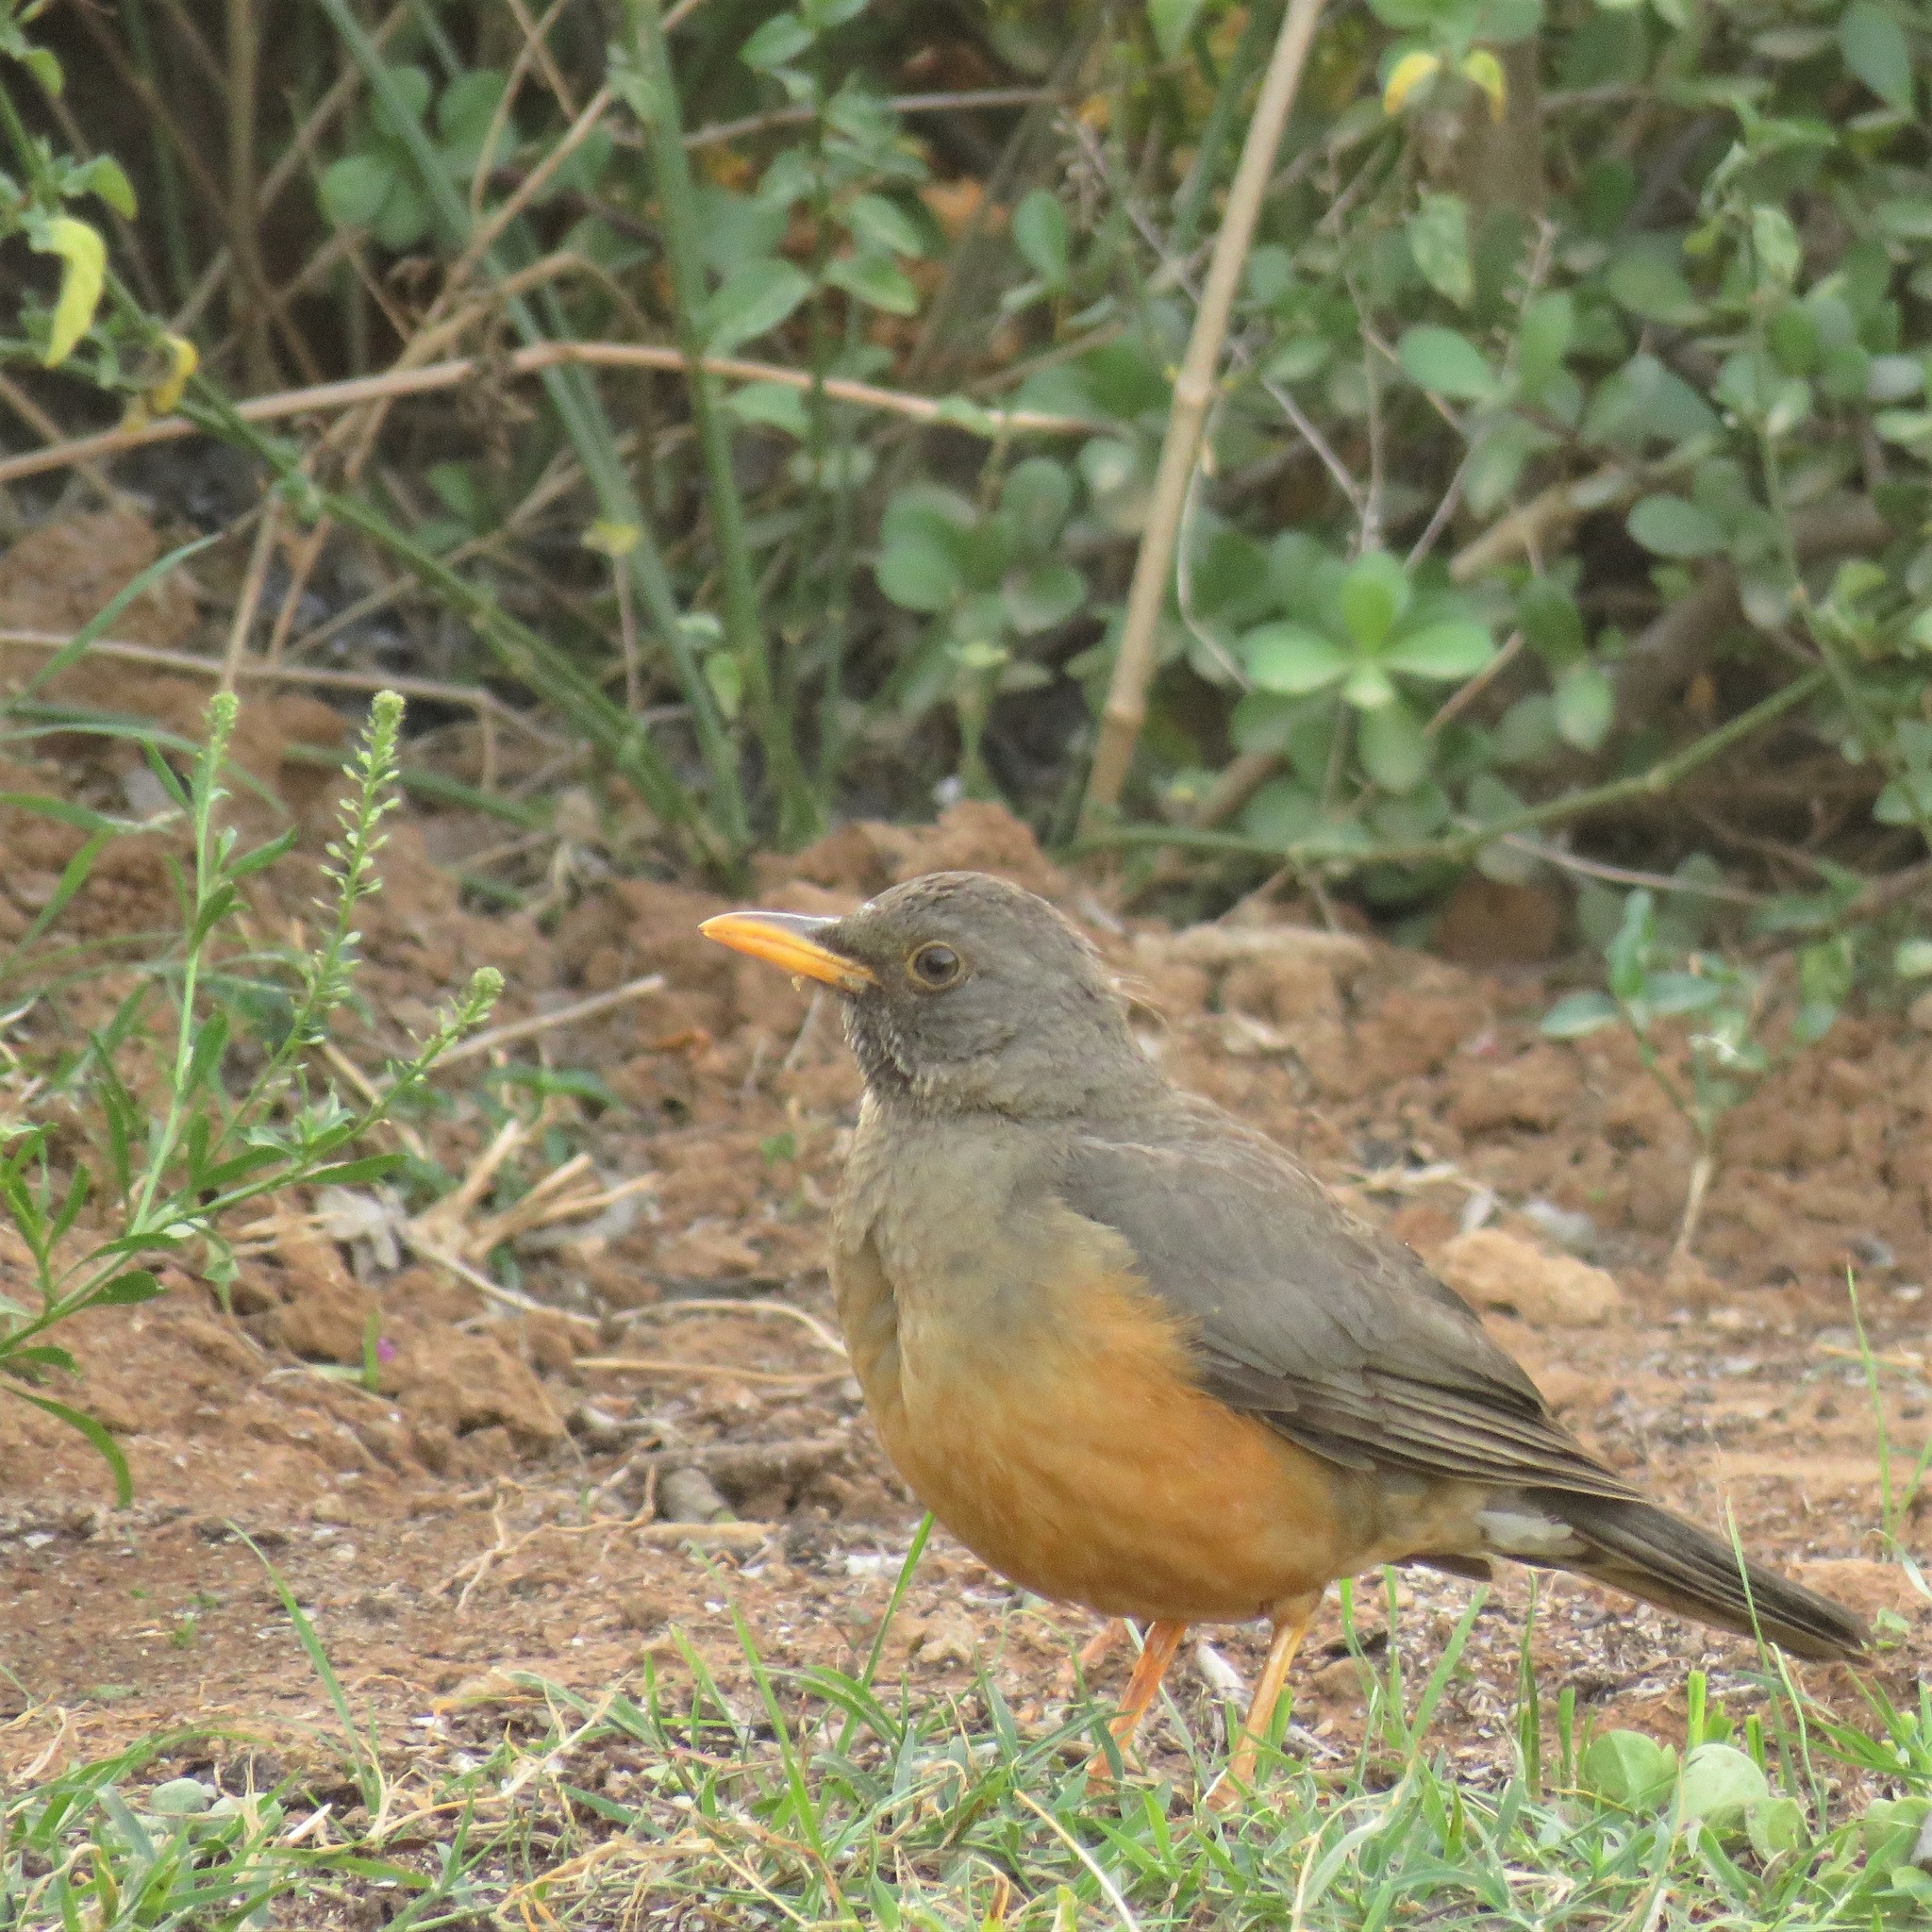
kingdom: Animalia
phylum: Chordata
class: Aves
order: Passeriformes
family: Turdidae
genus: Turdus
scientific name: Turdus olivaceus
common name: Olive thrush
